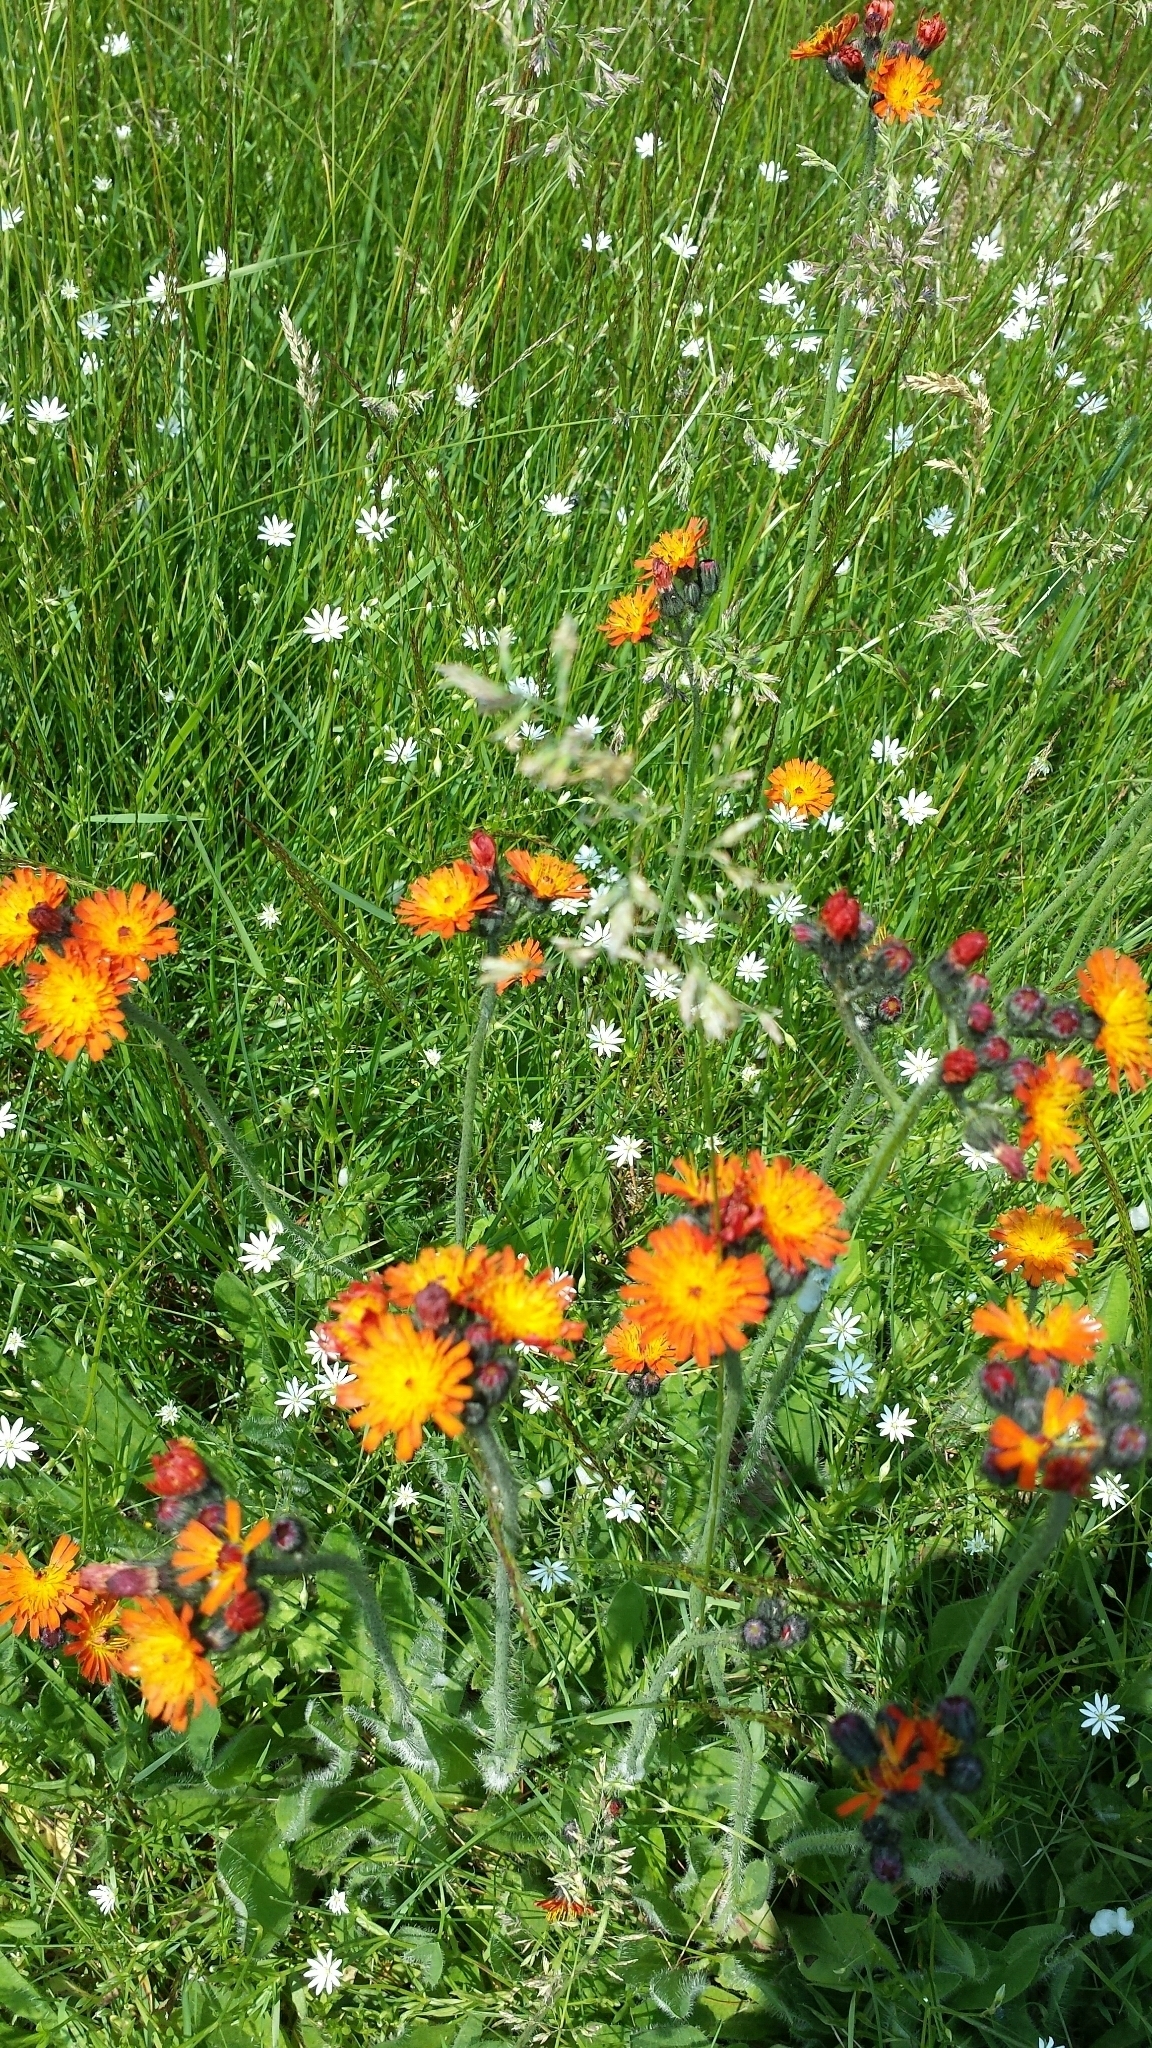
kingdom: Plantae
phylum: Tracheophyta
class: Magnoliopsida
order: Asterales
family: Asteraceae
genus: Pilosella
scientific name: Pilosella aurantiaca
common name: Fox-and-cubs
